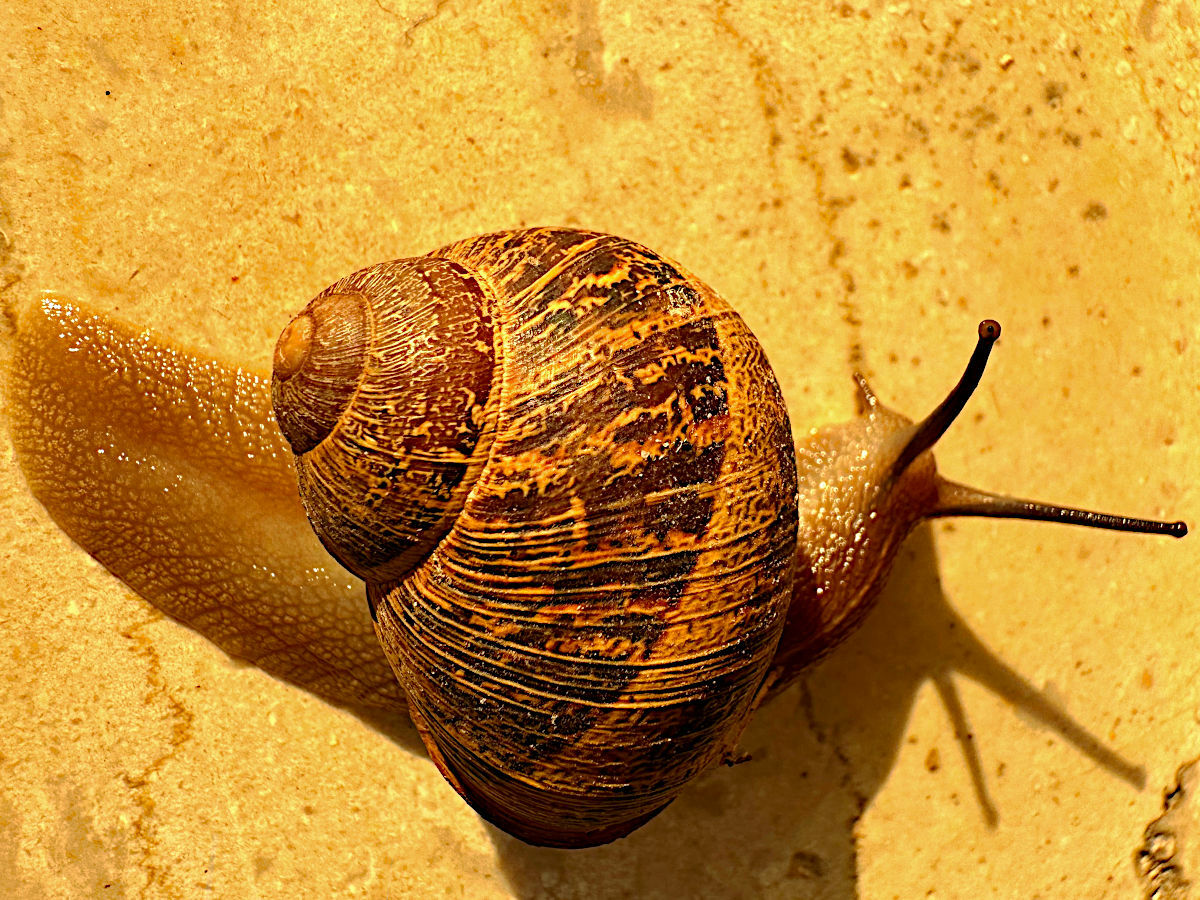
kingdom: Animalia
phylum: Mollusca
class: Gastropoda
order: Stylommatophora
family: Helicidae
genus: Cornu
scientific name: Cornu aspersum
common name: Brown garden snail
